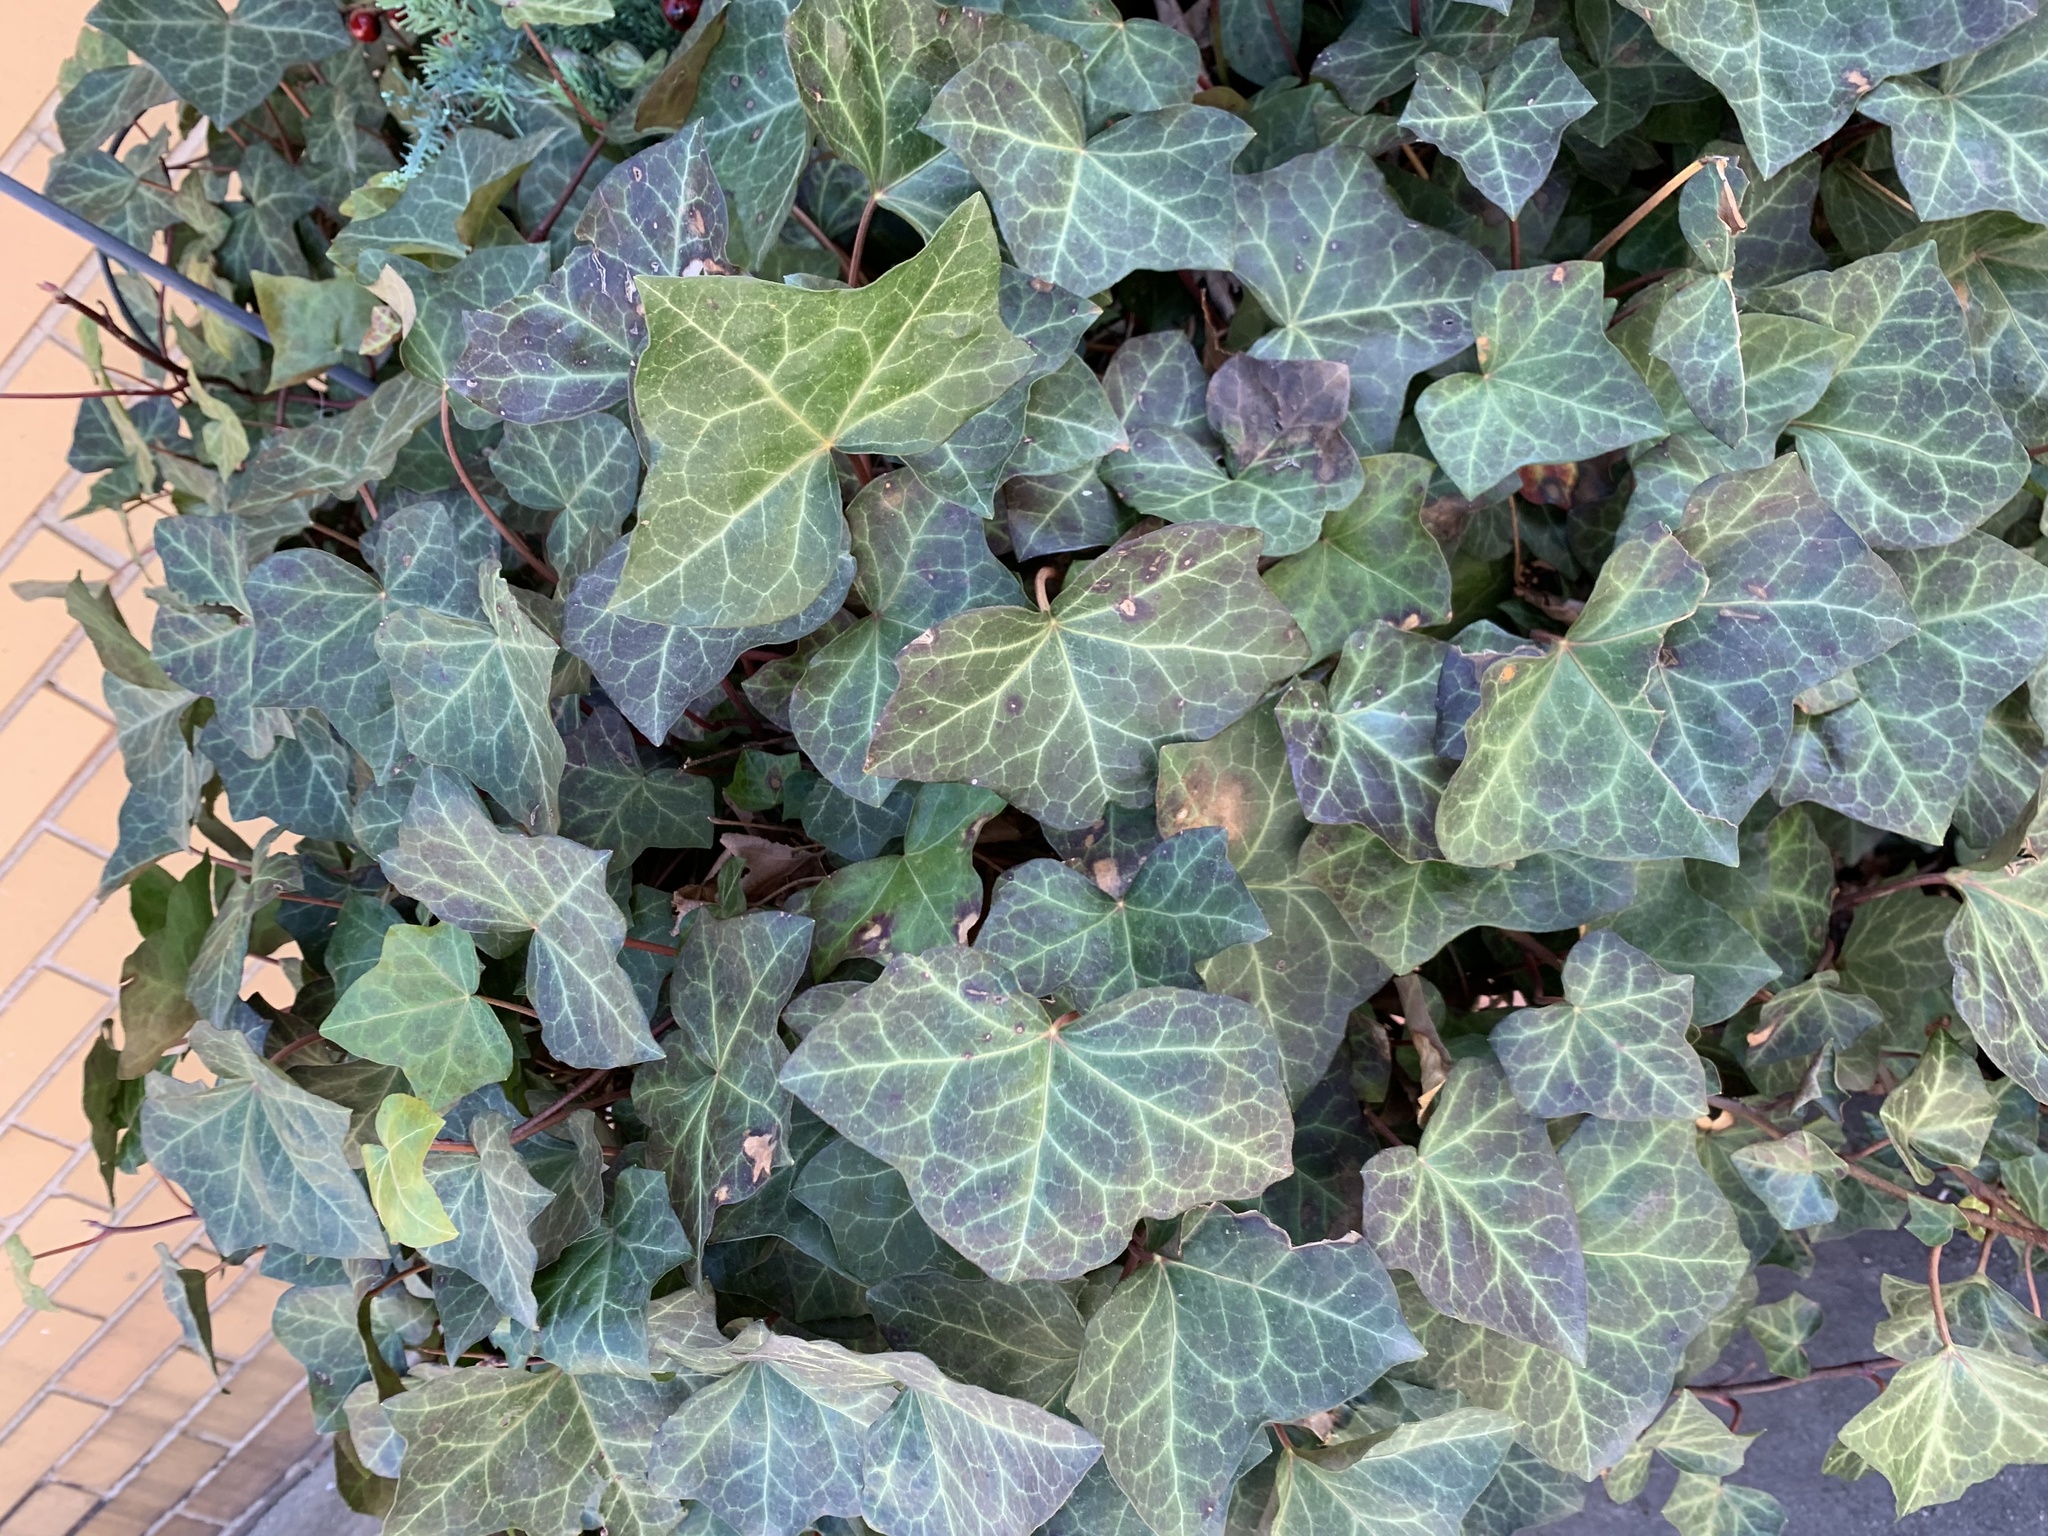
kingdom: Plantae
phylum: Tracheophyta
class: Magnoliopsida
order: Apiales
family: Araliaceae
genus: Hedera
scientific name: Hedera helix
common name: Ivy
